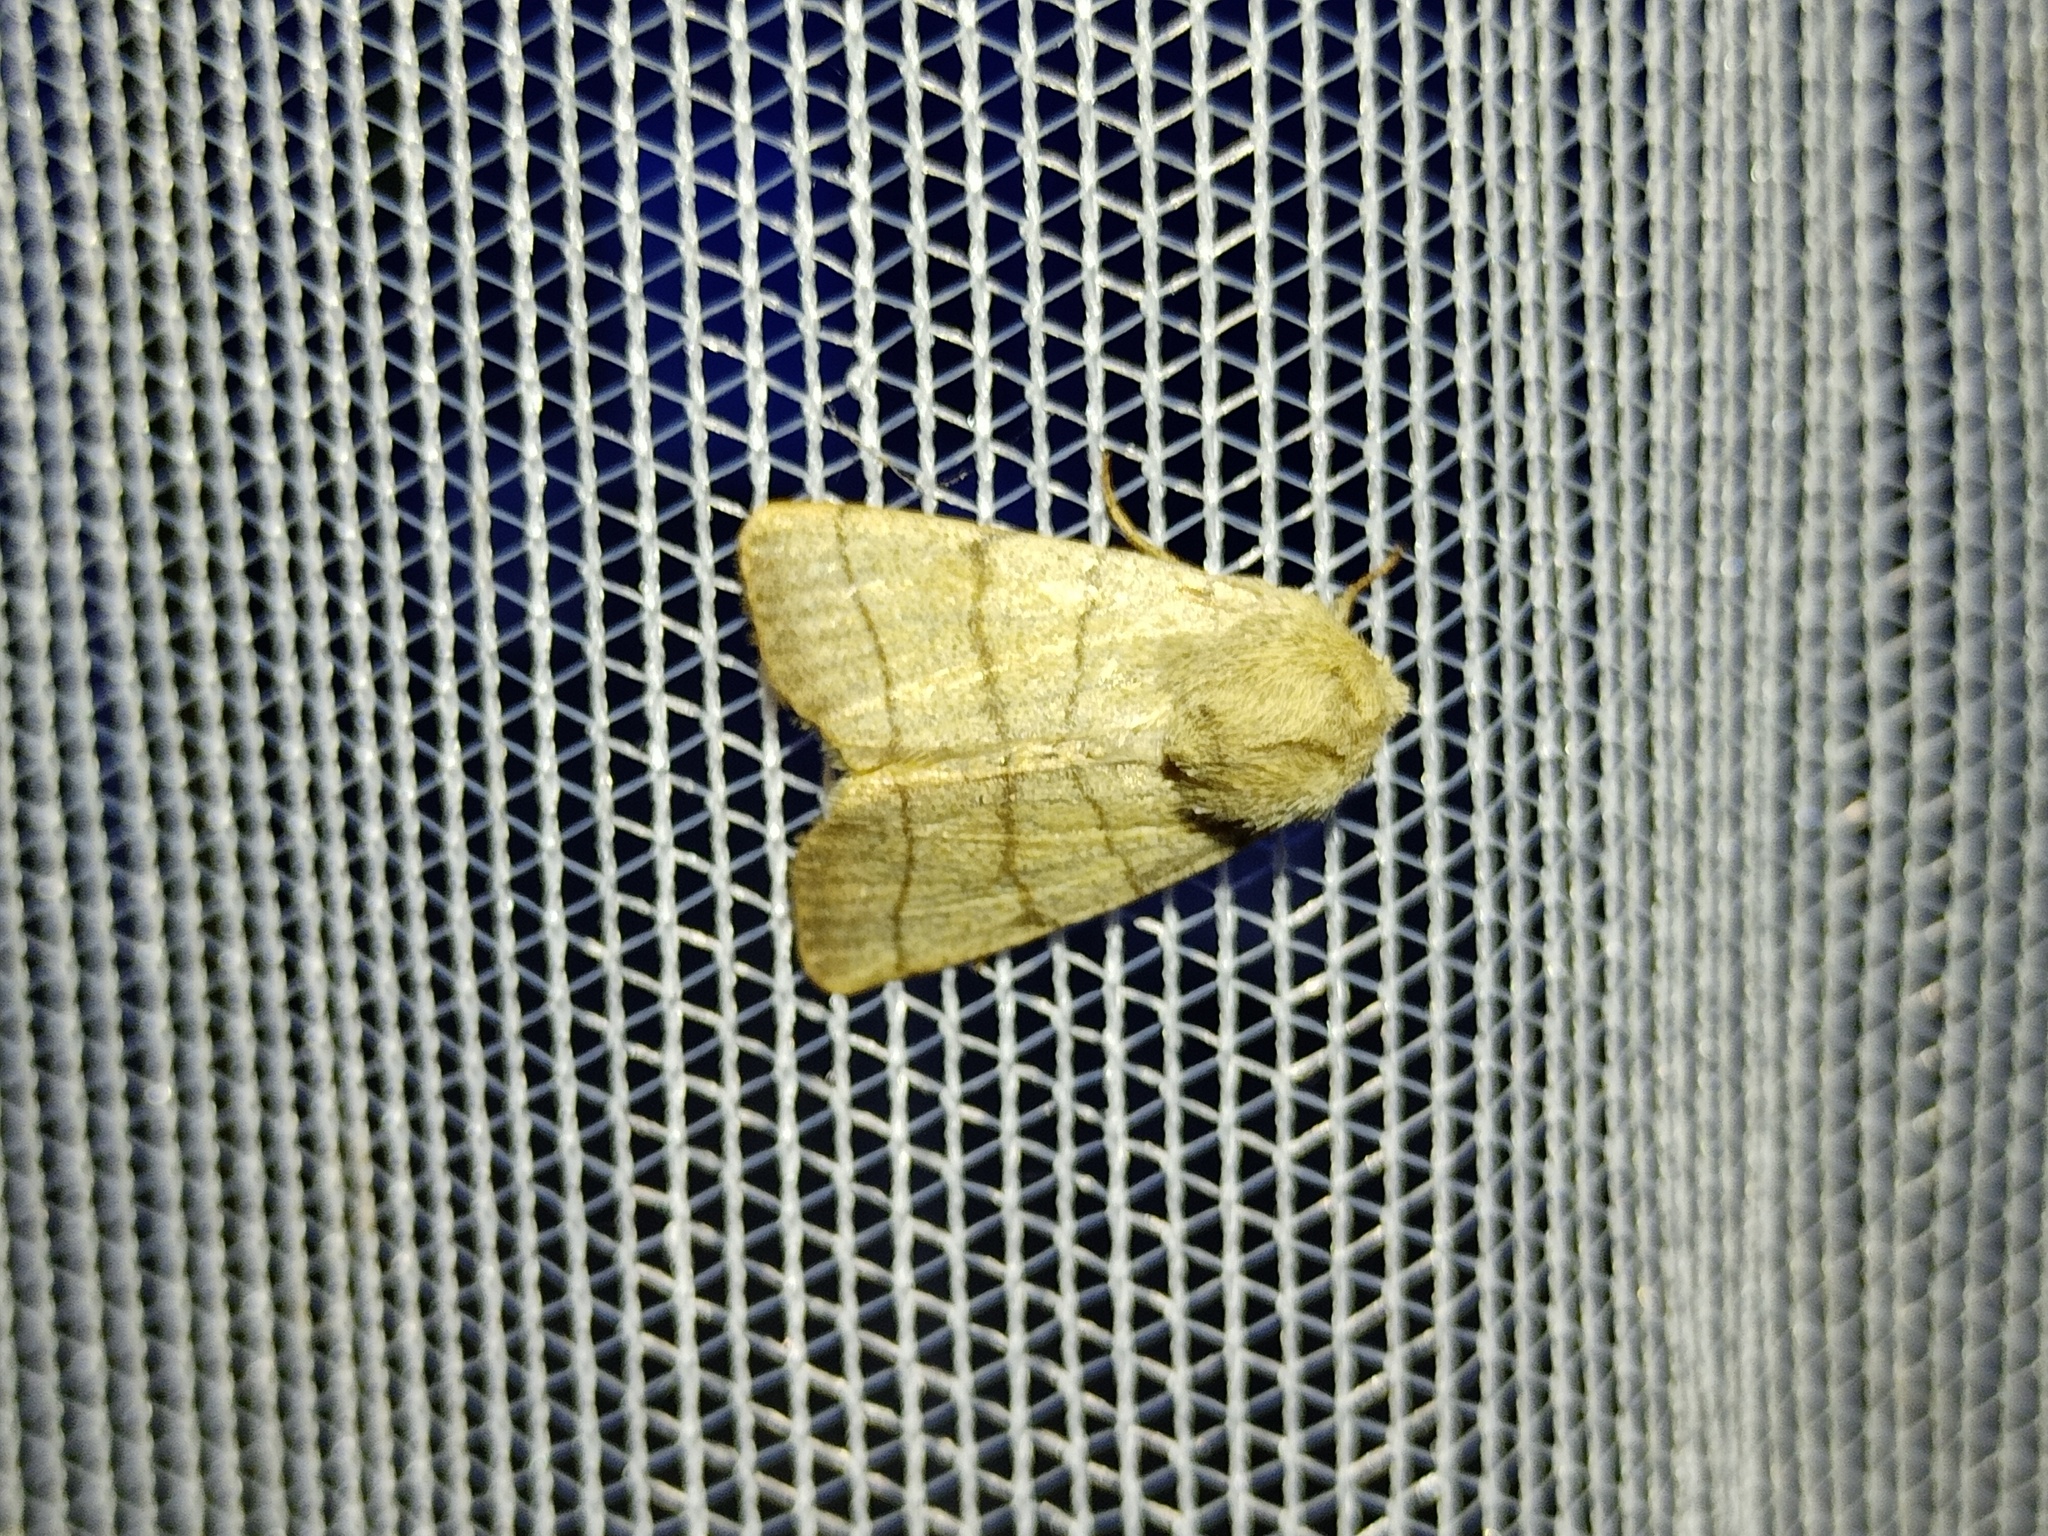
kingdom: Animalia
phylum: Arthropoda
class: Insecta
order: Lepidoptera
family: Noctuidae
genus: Charanyca
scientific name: Charanyca trigrammica
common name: Treble lines
